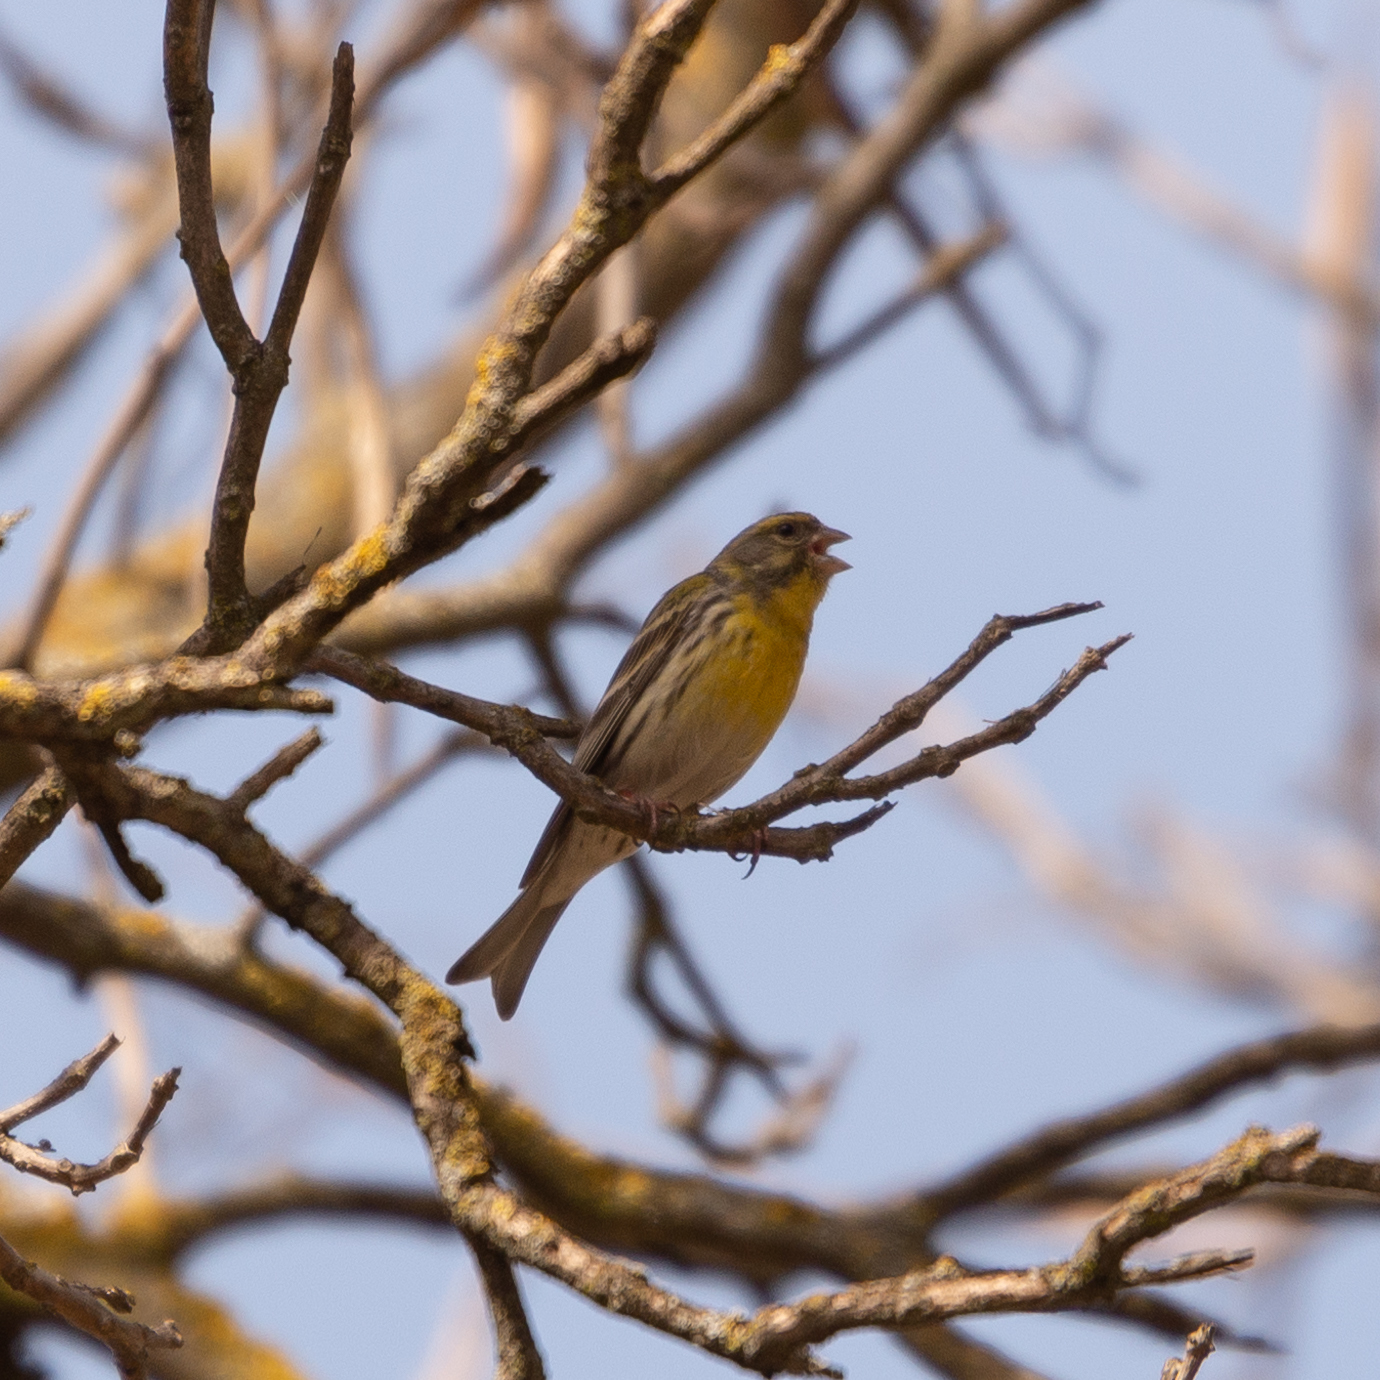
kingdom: Animalia
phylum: Chordata
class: Aves
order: Passeriformes
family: Fringillidae
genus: Serinus
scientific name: Serinus serinus
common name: European serin
